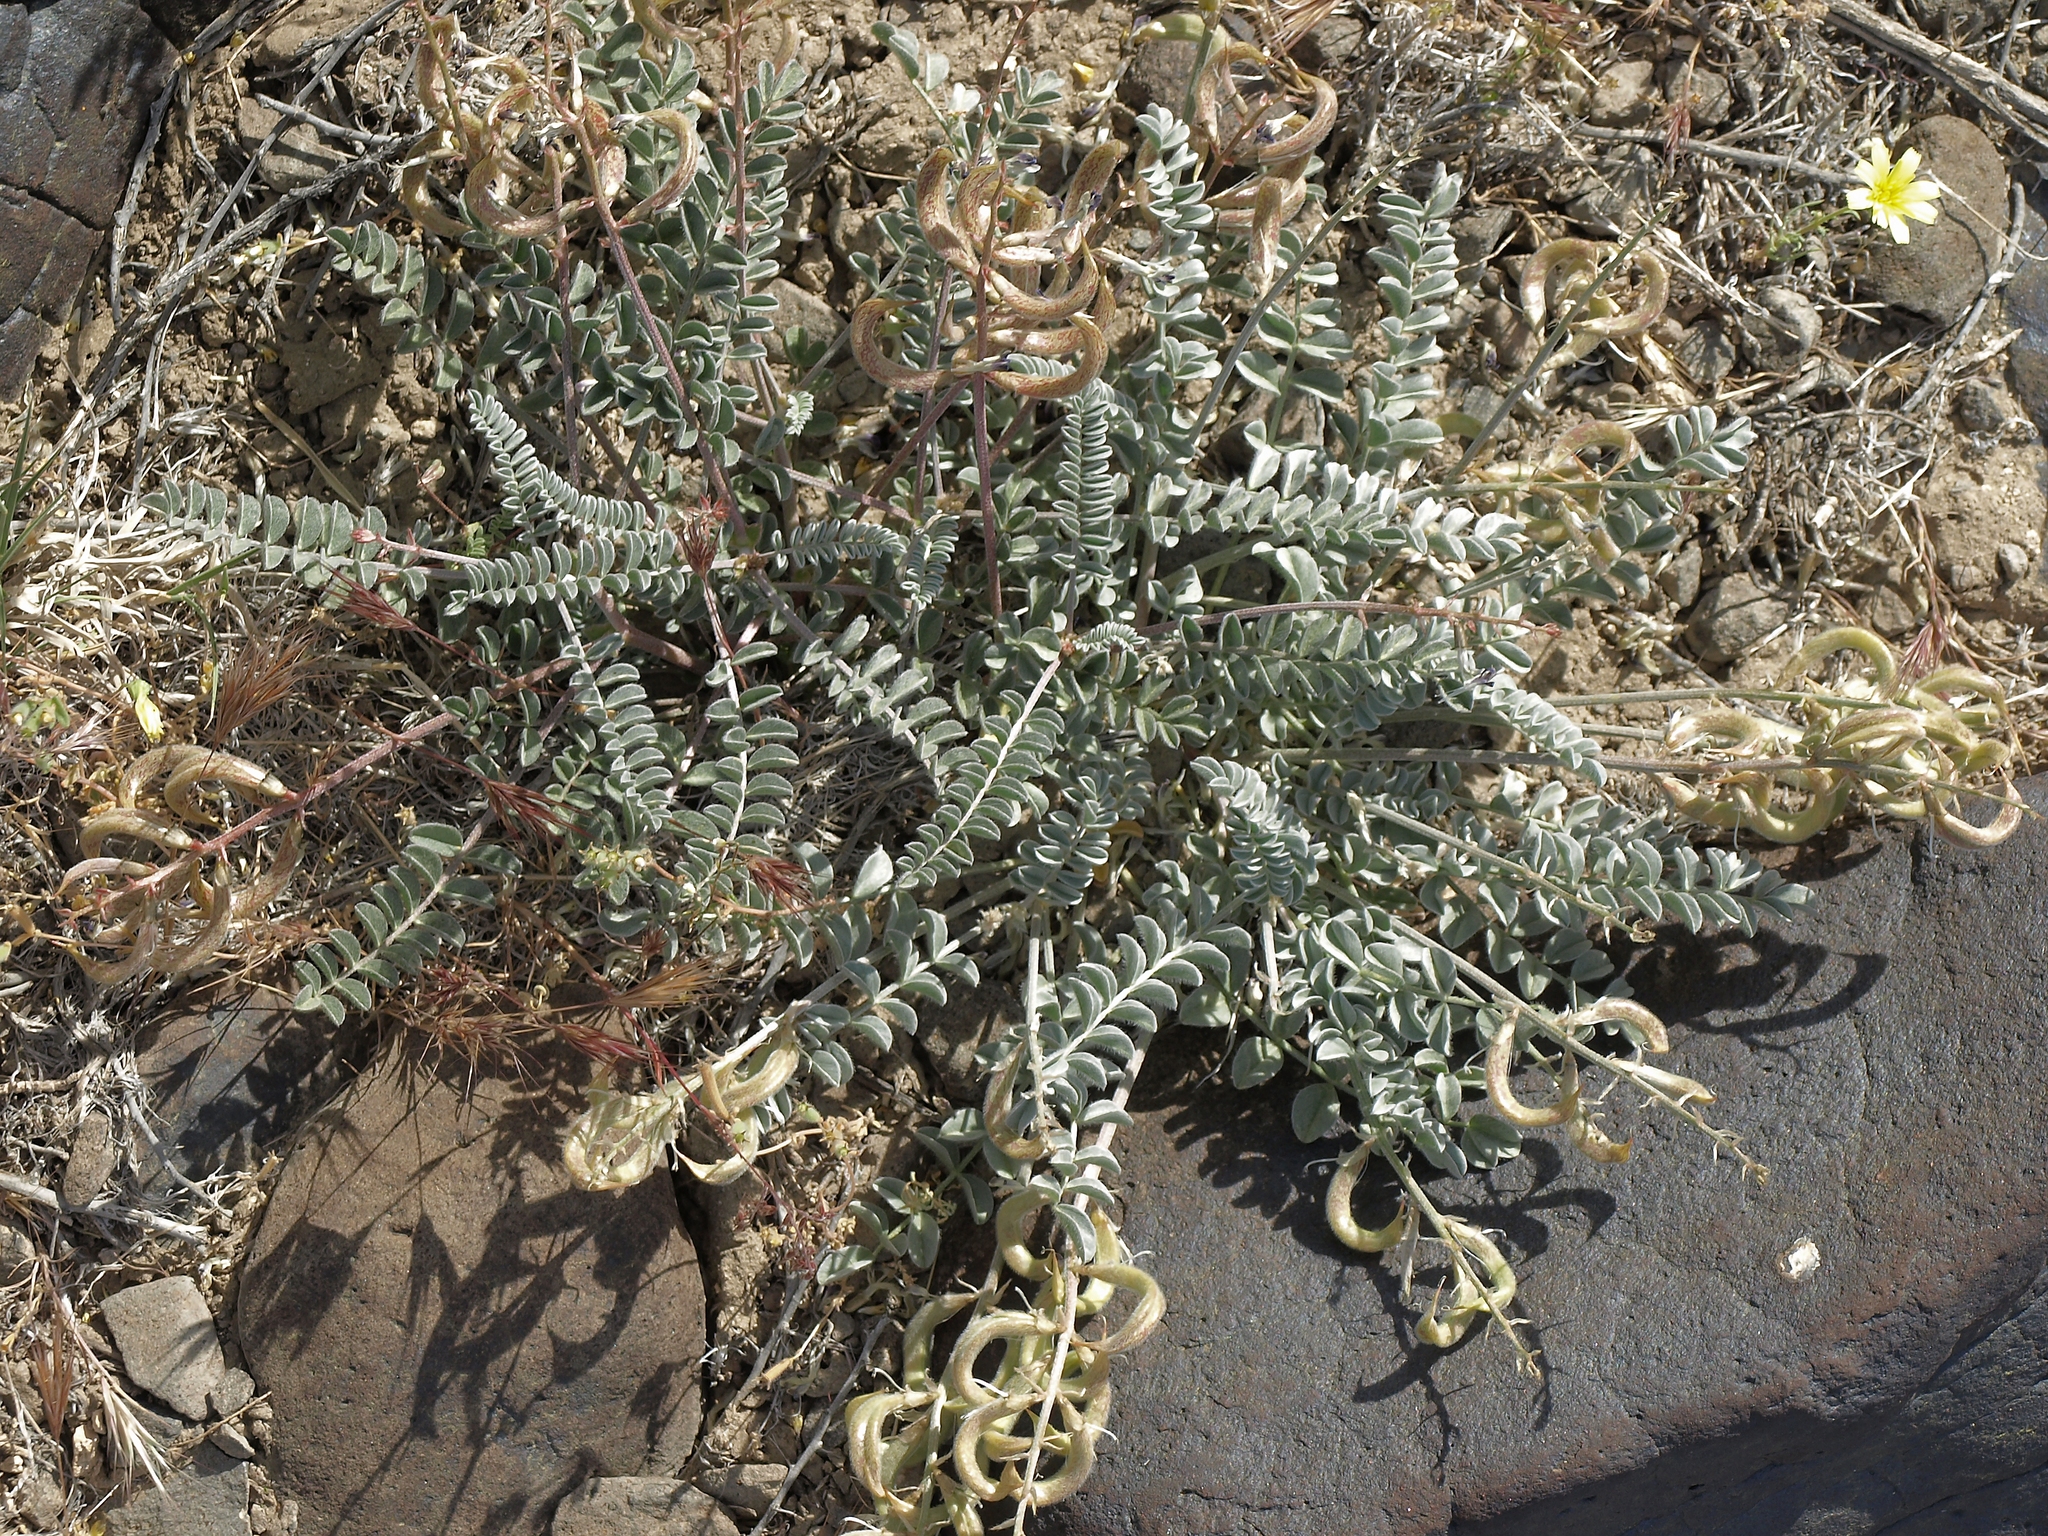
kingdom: Plantae
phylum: Tracheophyta
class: Magnoliopsida
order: Fabales
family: Fabaceae
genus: Astragalus
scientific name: Astragalus layneae
